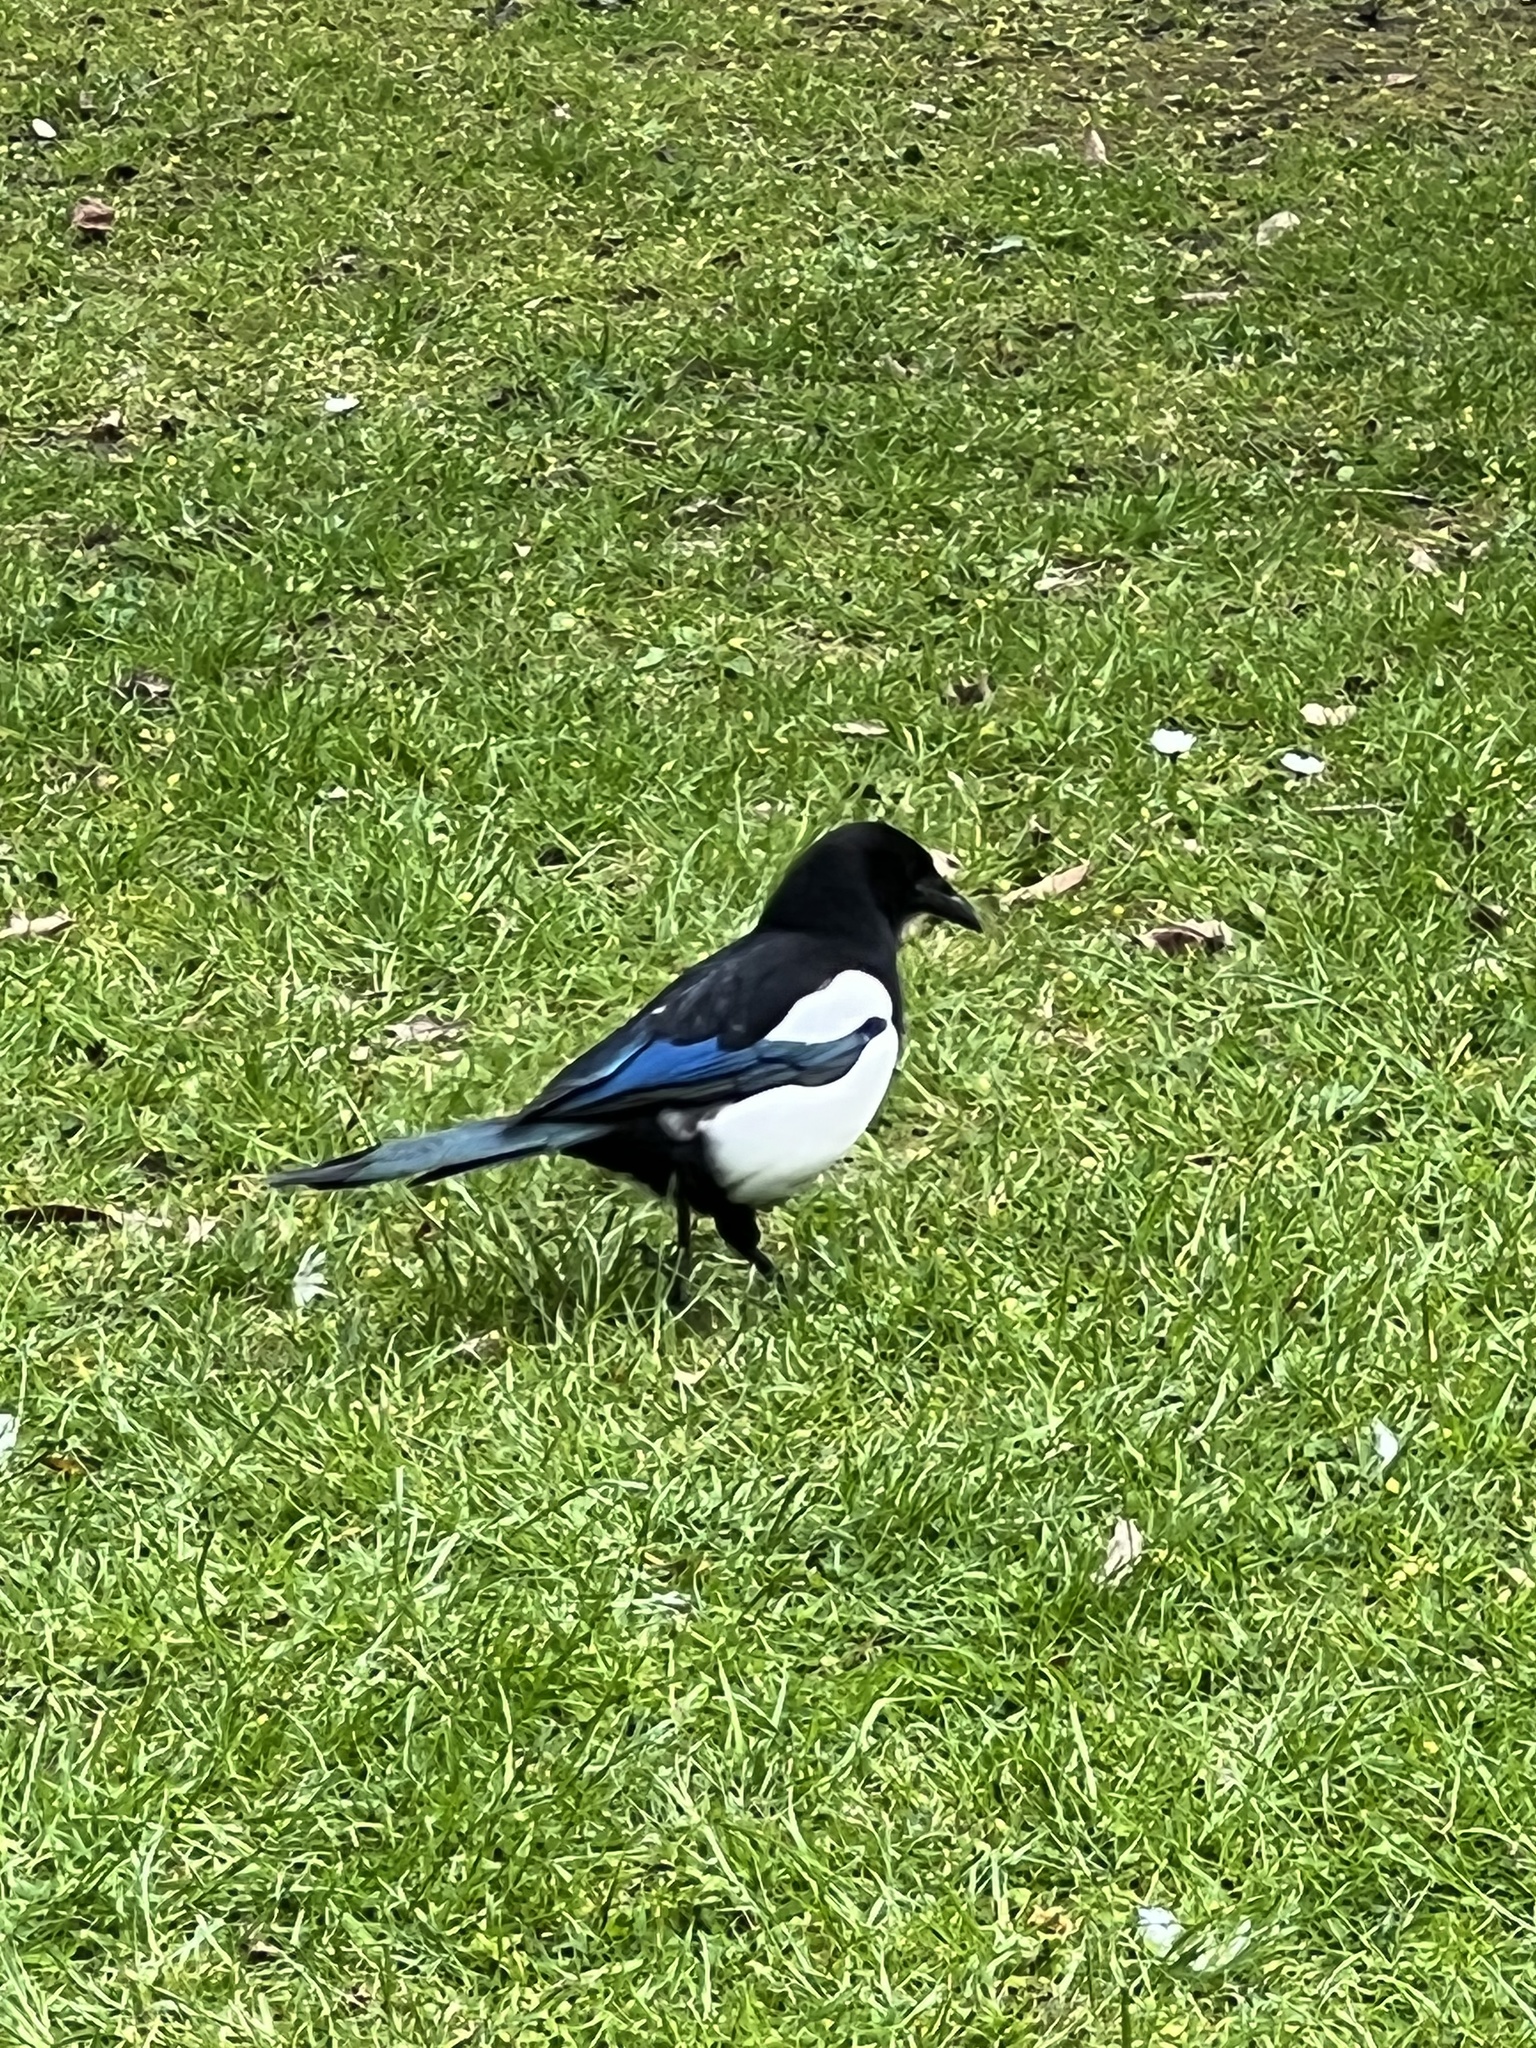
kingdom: Animalia
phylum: Chordata
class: Aves
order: Passeriformes
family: Corvidae
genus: Pica
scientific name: Pica pica
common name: Eurasian magpie
